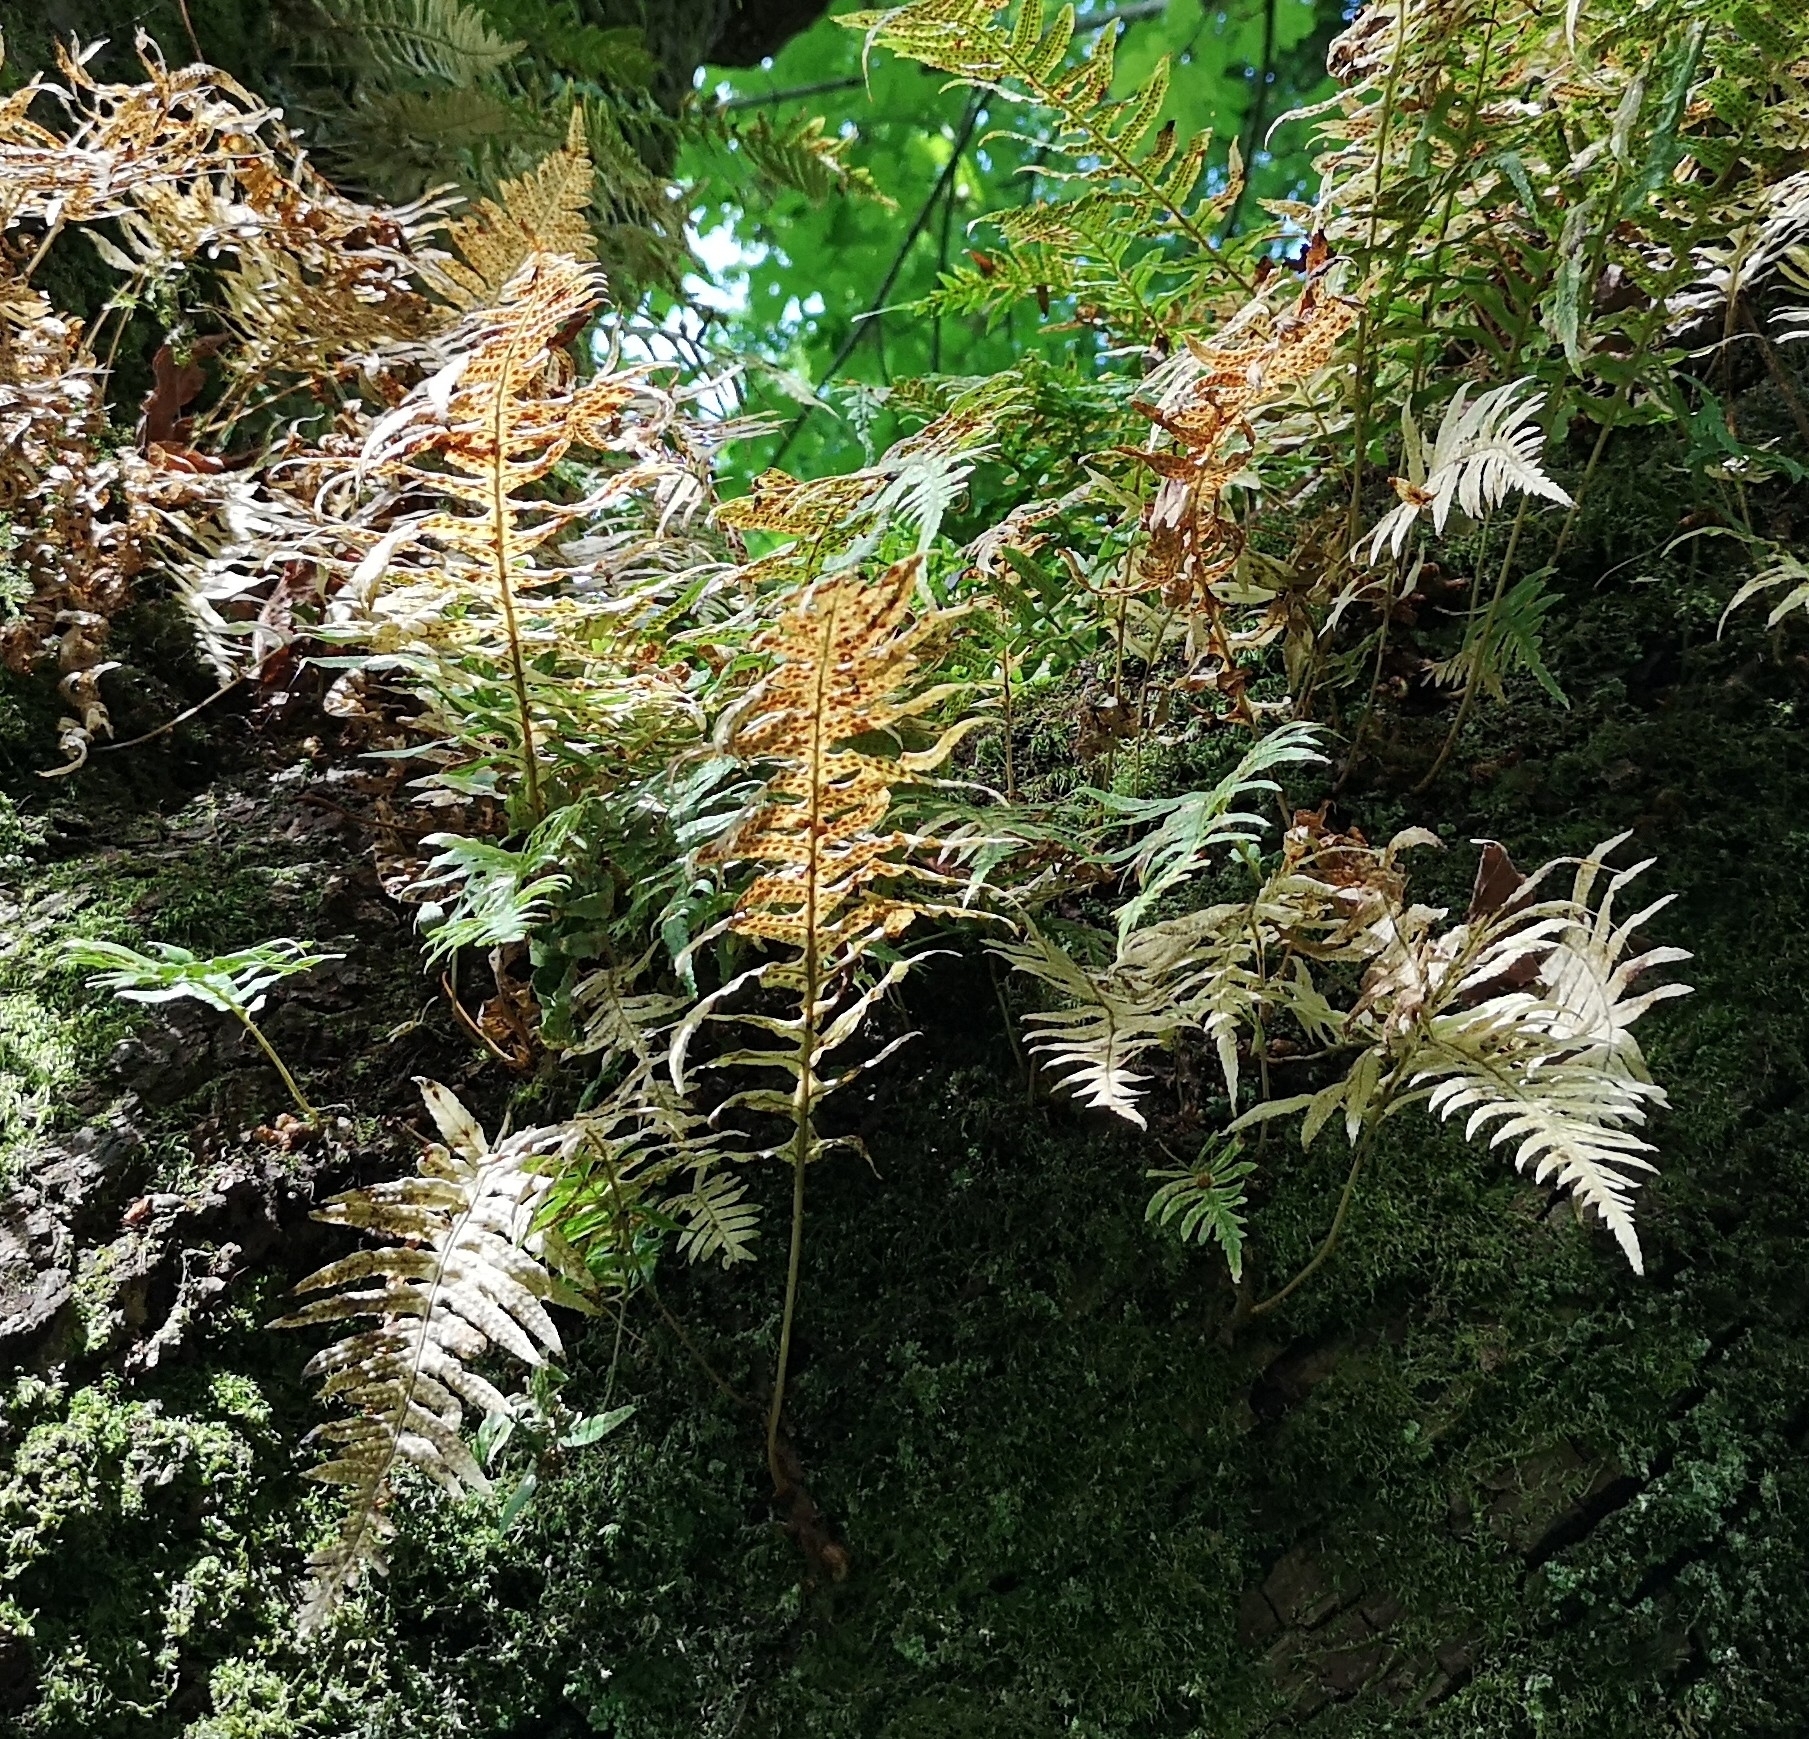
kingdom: Plantae
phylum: Tracheophyta
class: Polypodiopsida
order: Polypodiales
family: Polypodiaceae
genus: Polypodium
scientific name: Polypodium glycyrrhiza
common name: Licorice fern
